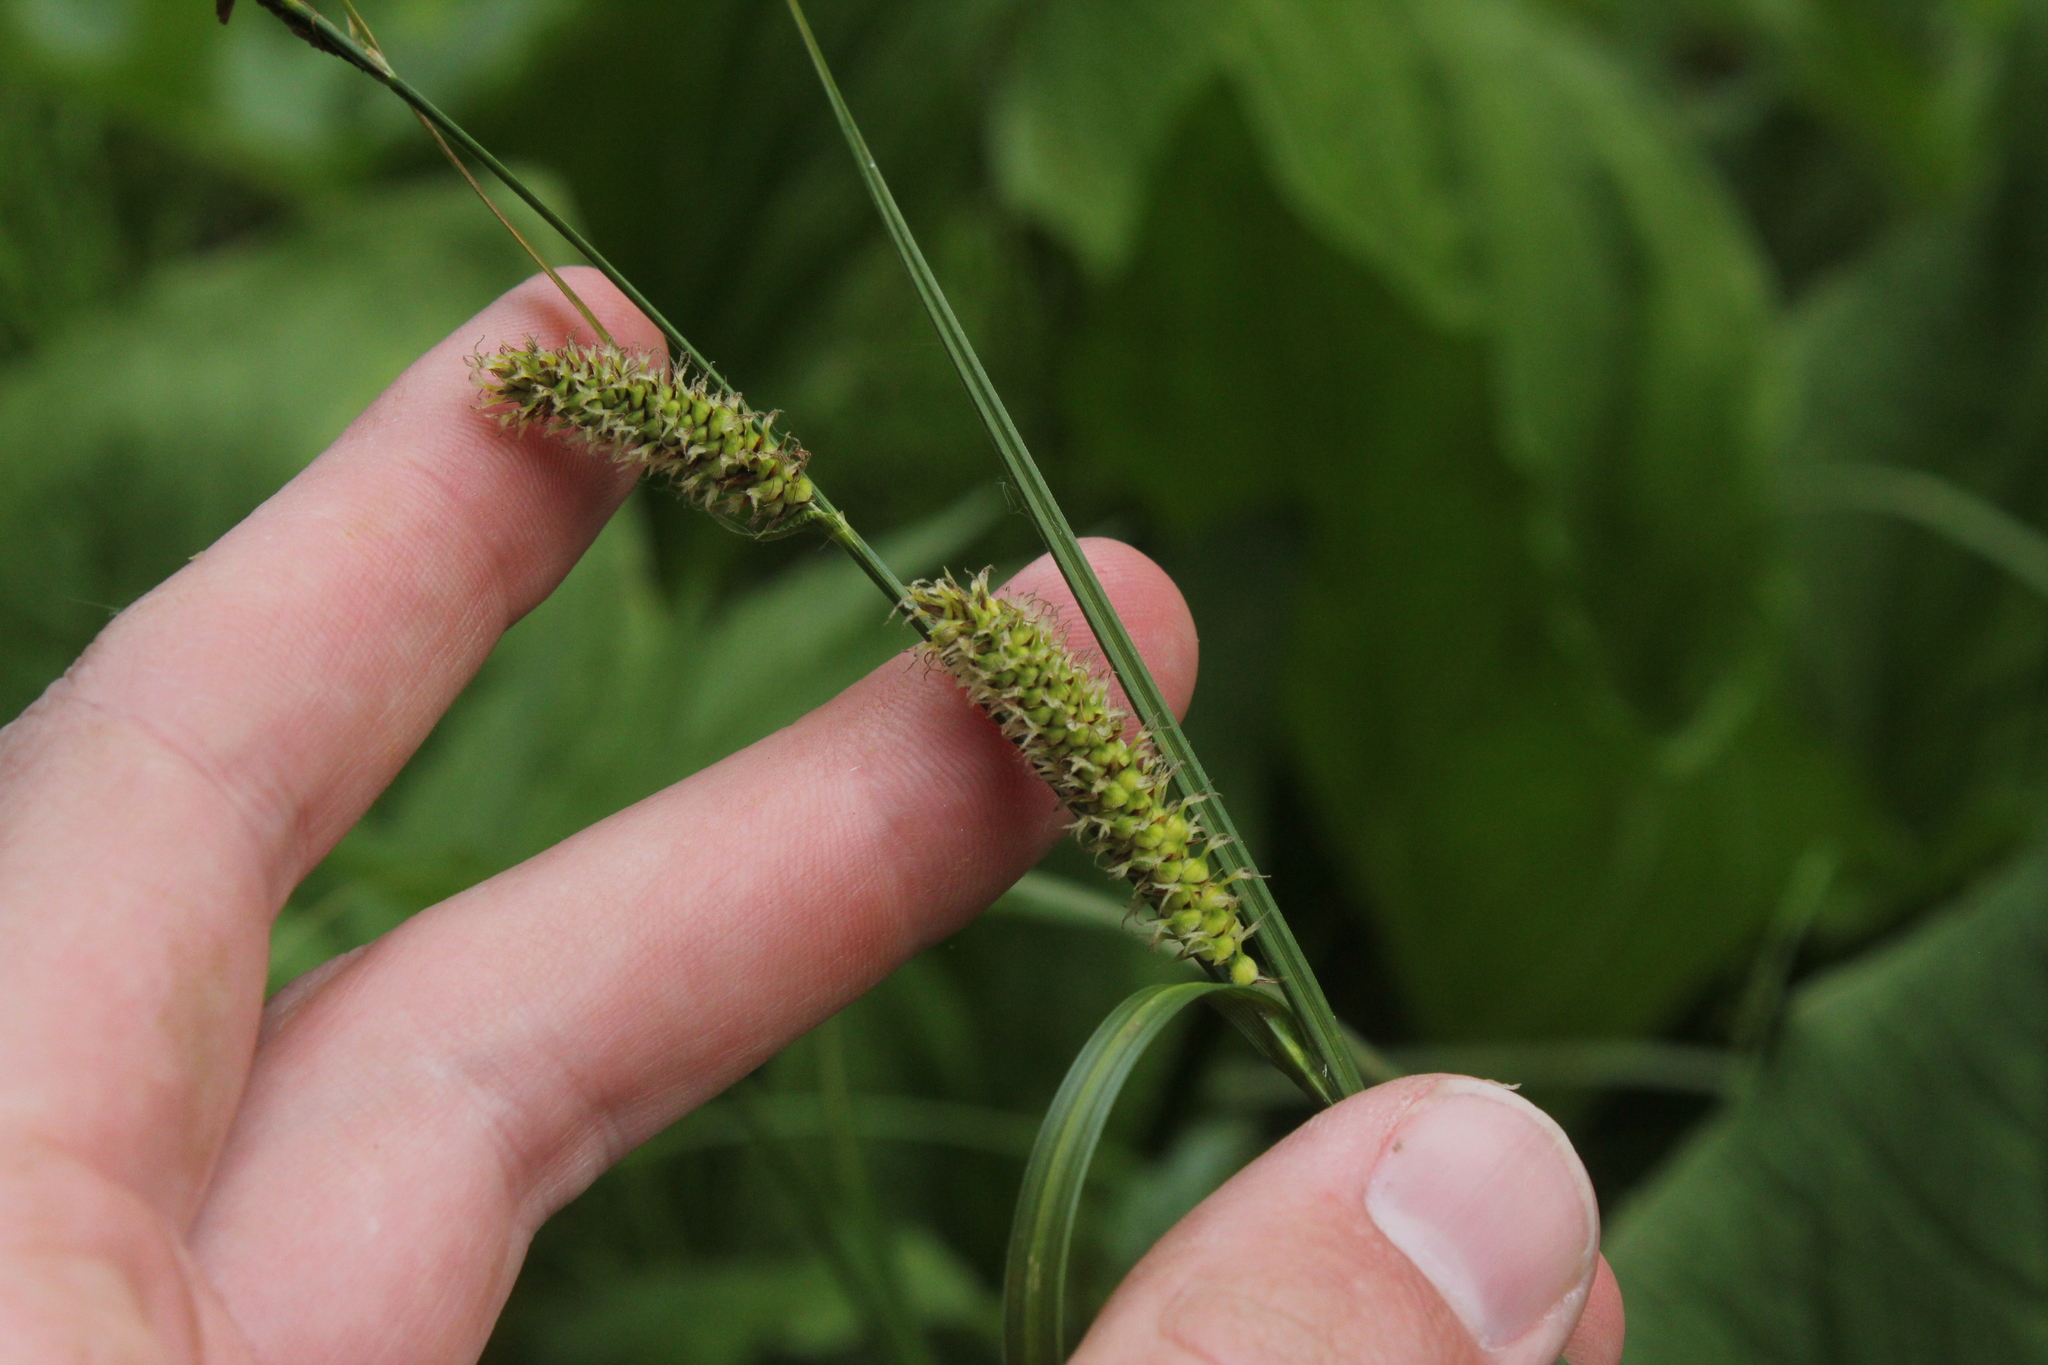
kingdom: Plantae
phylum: Tracheophyta
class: Liliopsida
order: Poales
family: Cyperaceae
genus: Carex
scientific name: Carex pellita
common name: Woolly sedge
